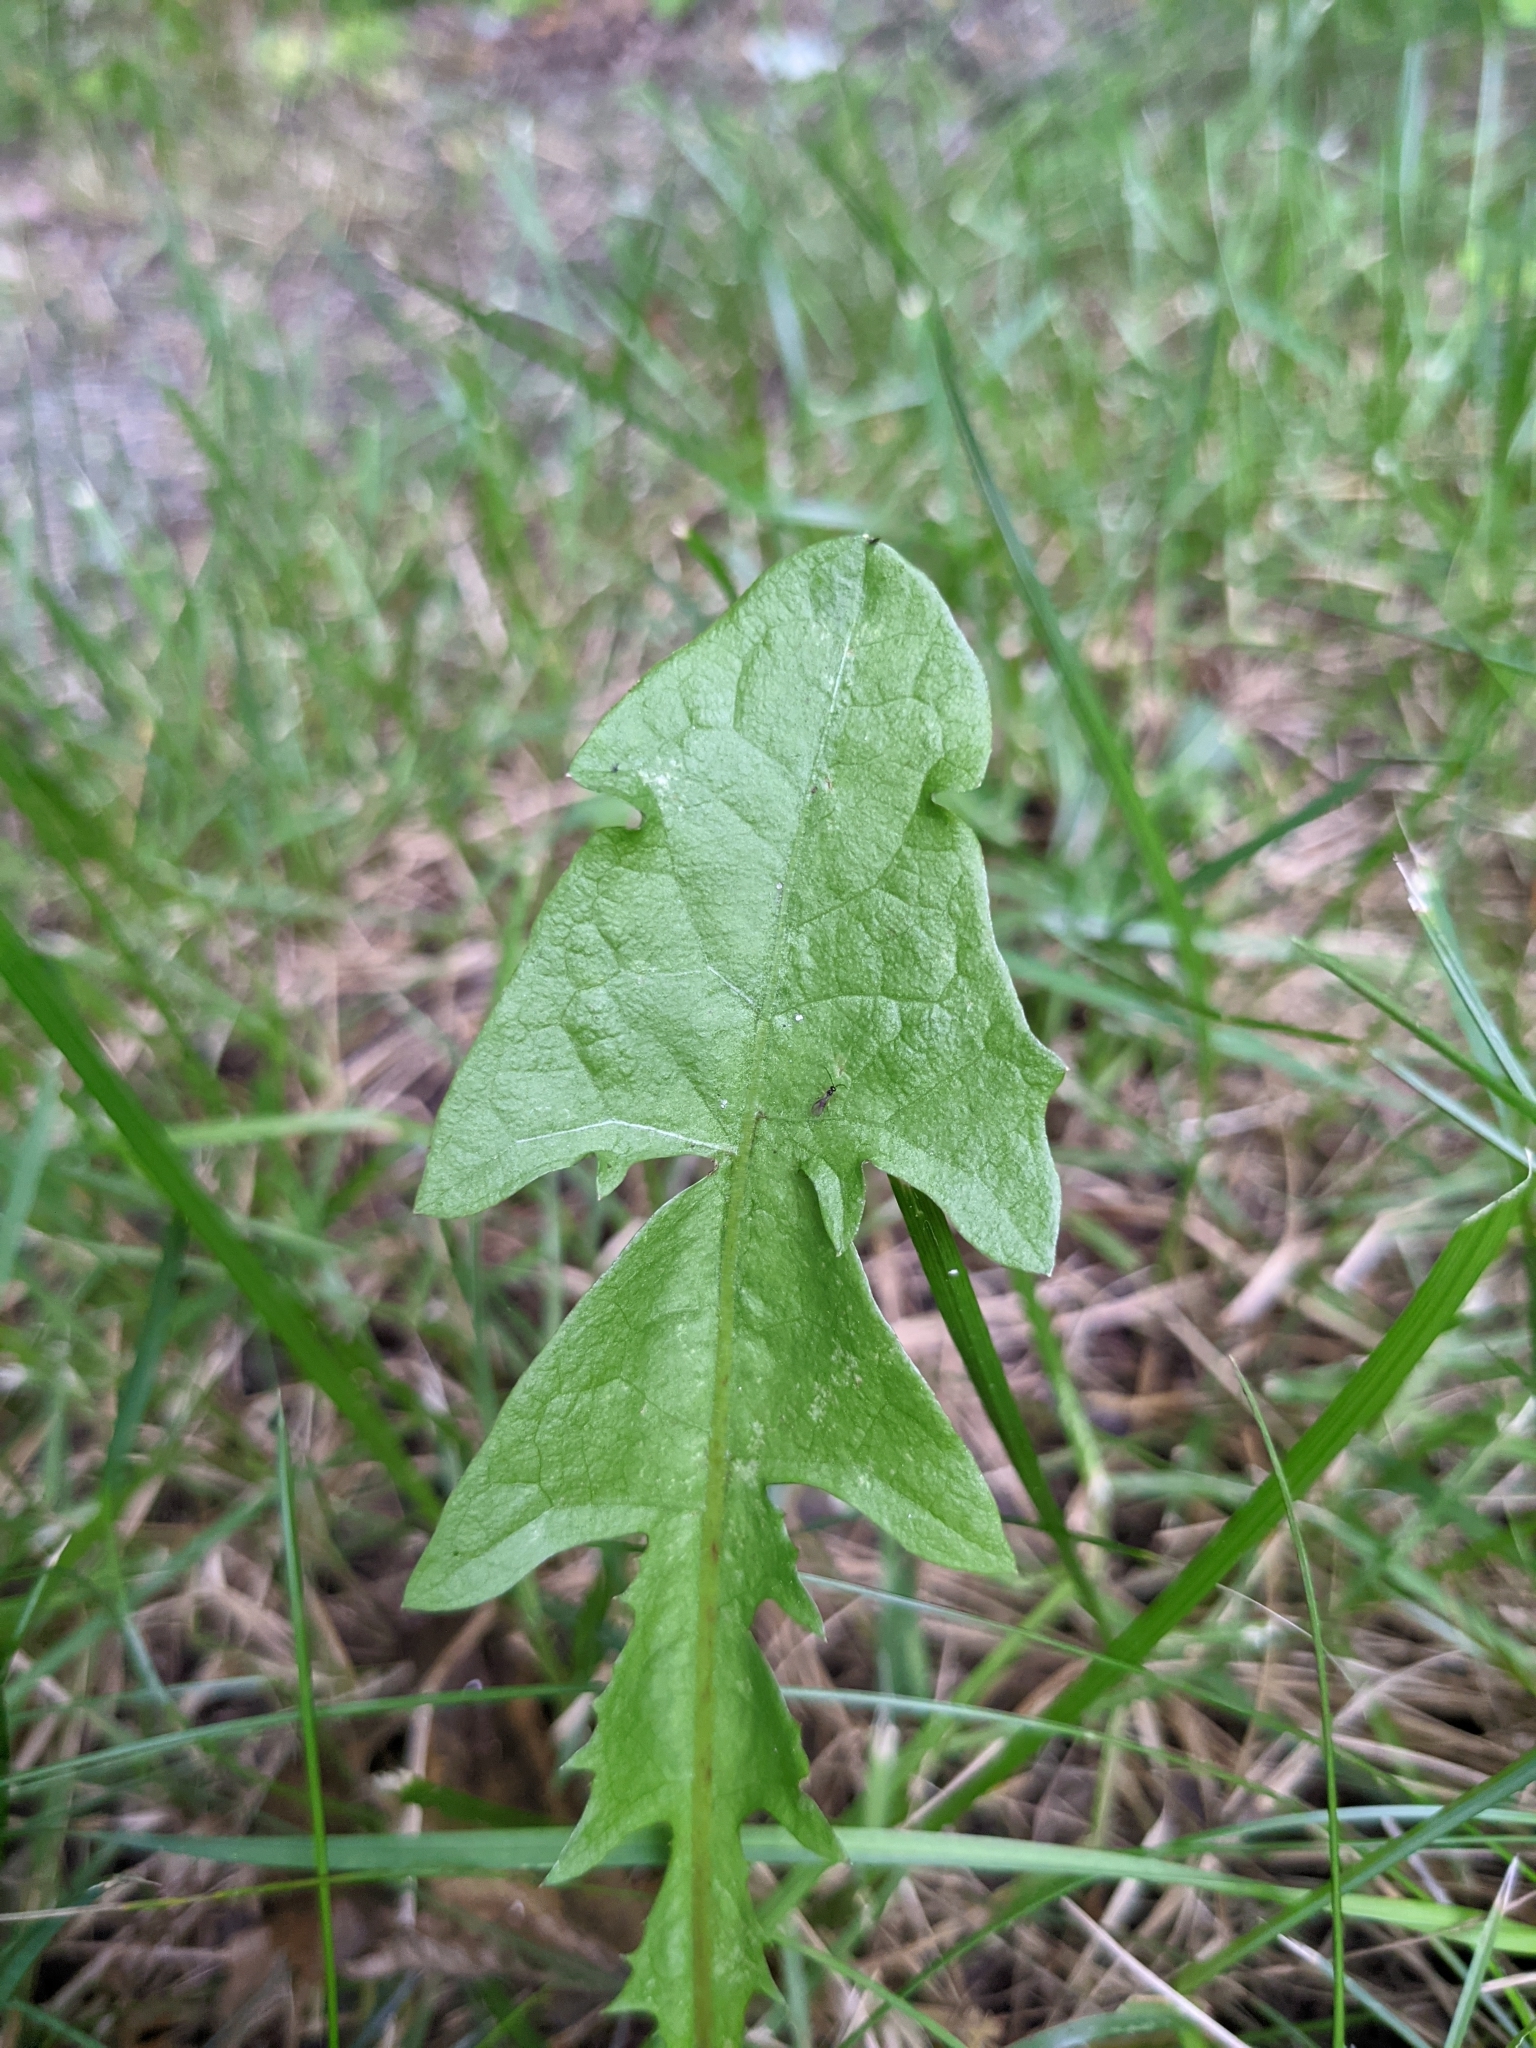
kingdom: Plantae
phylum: Tracheophyta
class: Magnoliopsida
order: Asterales
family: Asteraceae
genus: Taraxacum
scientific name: Taraxacum officinale
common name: Common dandelion
